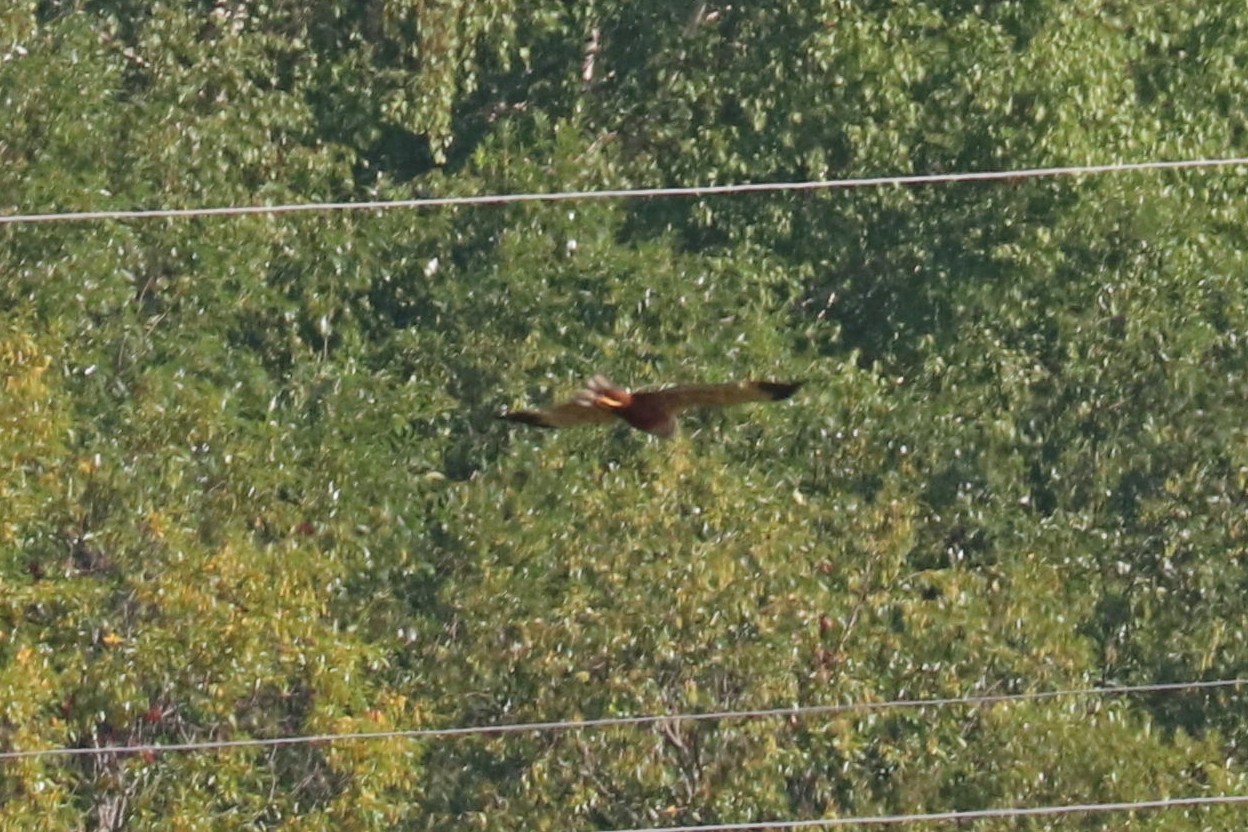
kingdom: Animalia
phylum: Chordata
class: Aves
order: Accipitriformes
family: Accipitridae
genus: Circus
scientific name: Circus aeruginosus
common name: Western marsh harrier
